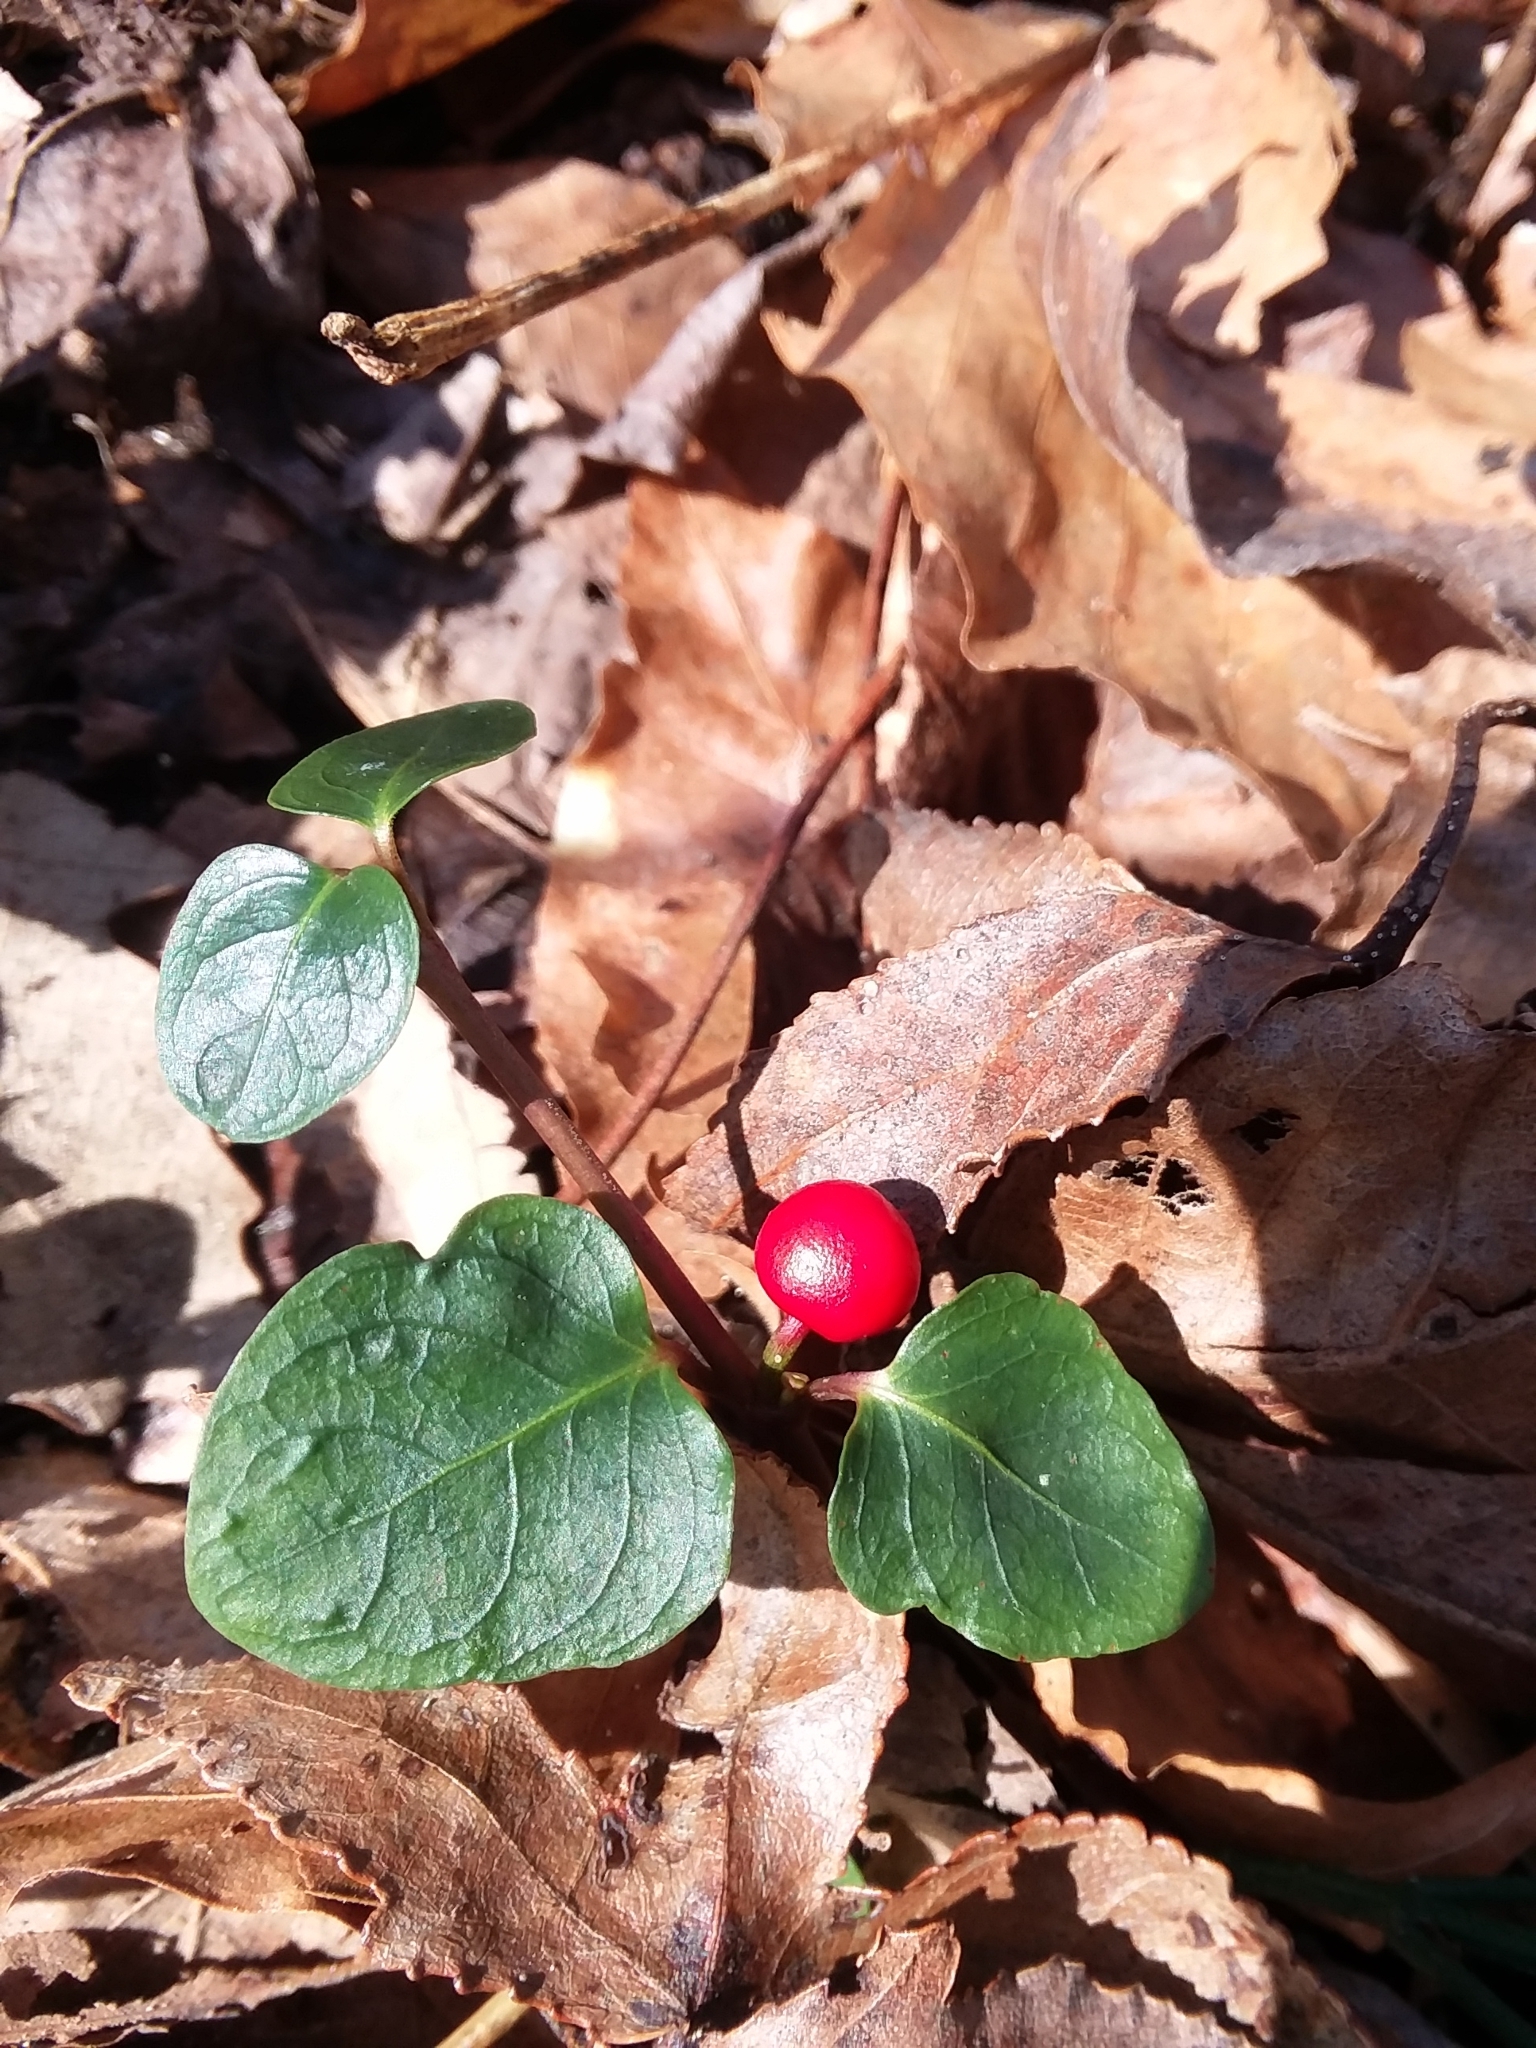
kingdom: Plantae
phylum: Tracheophyta
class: Magnoliopsida
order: Gentianales
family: Rubiaceae
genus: Mitchella
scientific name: Mitchella repens
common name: Partridge-berry
